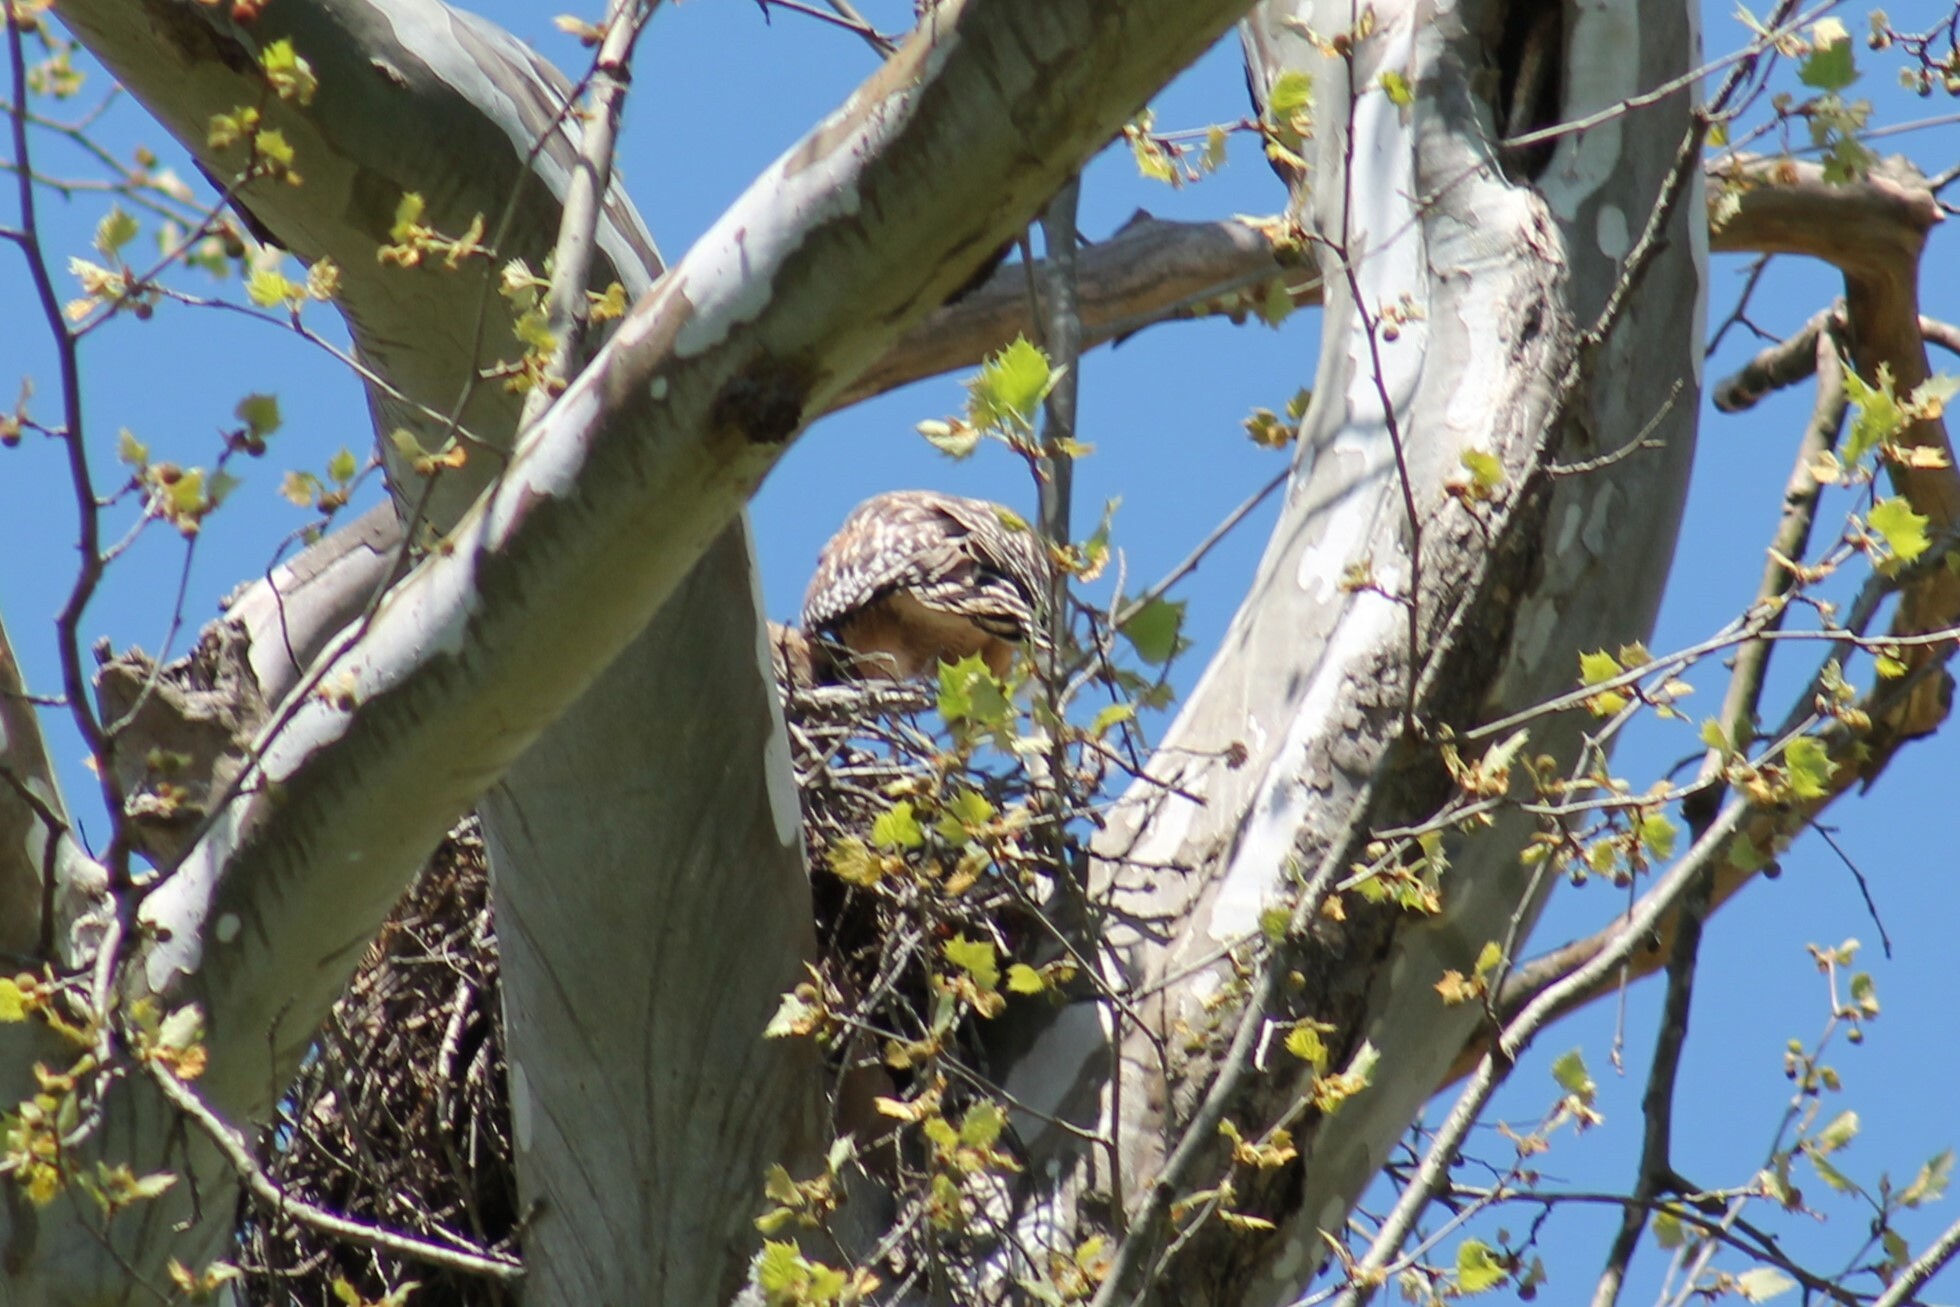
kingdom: Animalia
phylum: Chordata
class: Aves
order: Accipitriformes
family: Accipitridae
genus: Buteo
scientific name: Buteo lineatus
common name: Red-shouldered hawk
